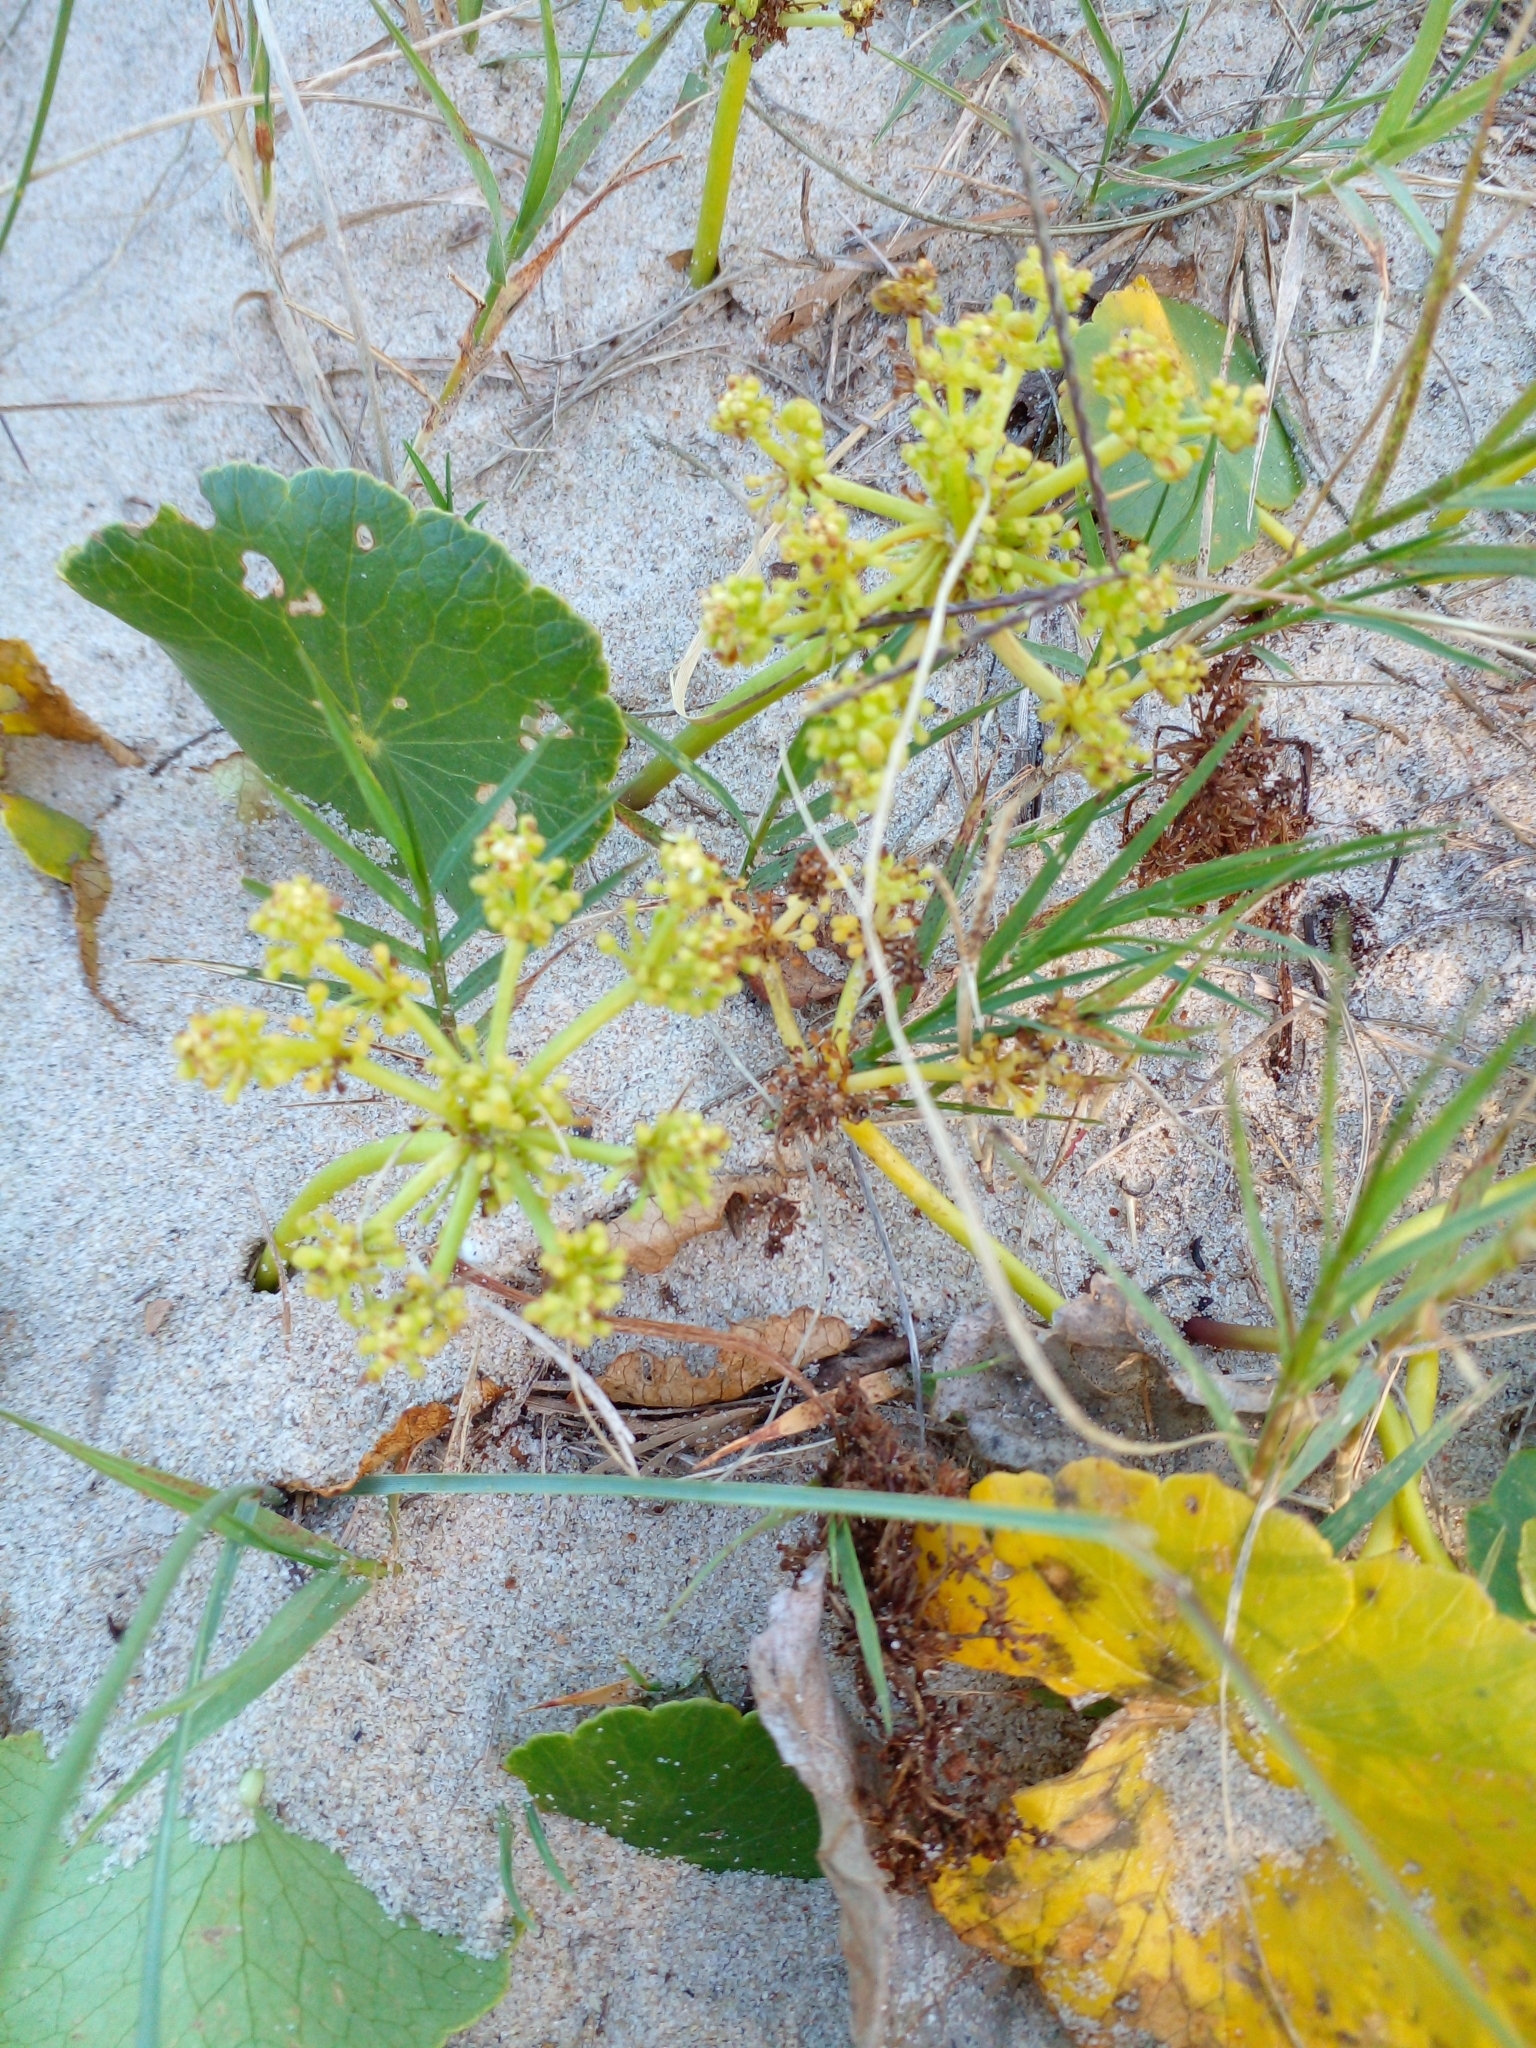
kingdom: Plantae
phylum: Tracheophyta
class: Magnoliopsida
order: Apiales
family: Araliaceae
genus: Hydrocotyle
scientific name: Hydrocotyle bonariensis
